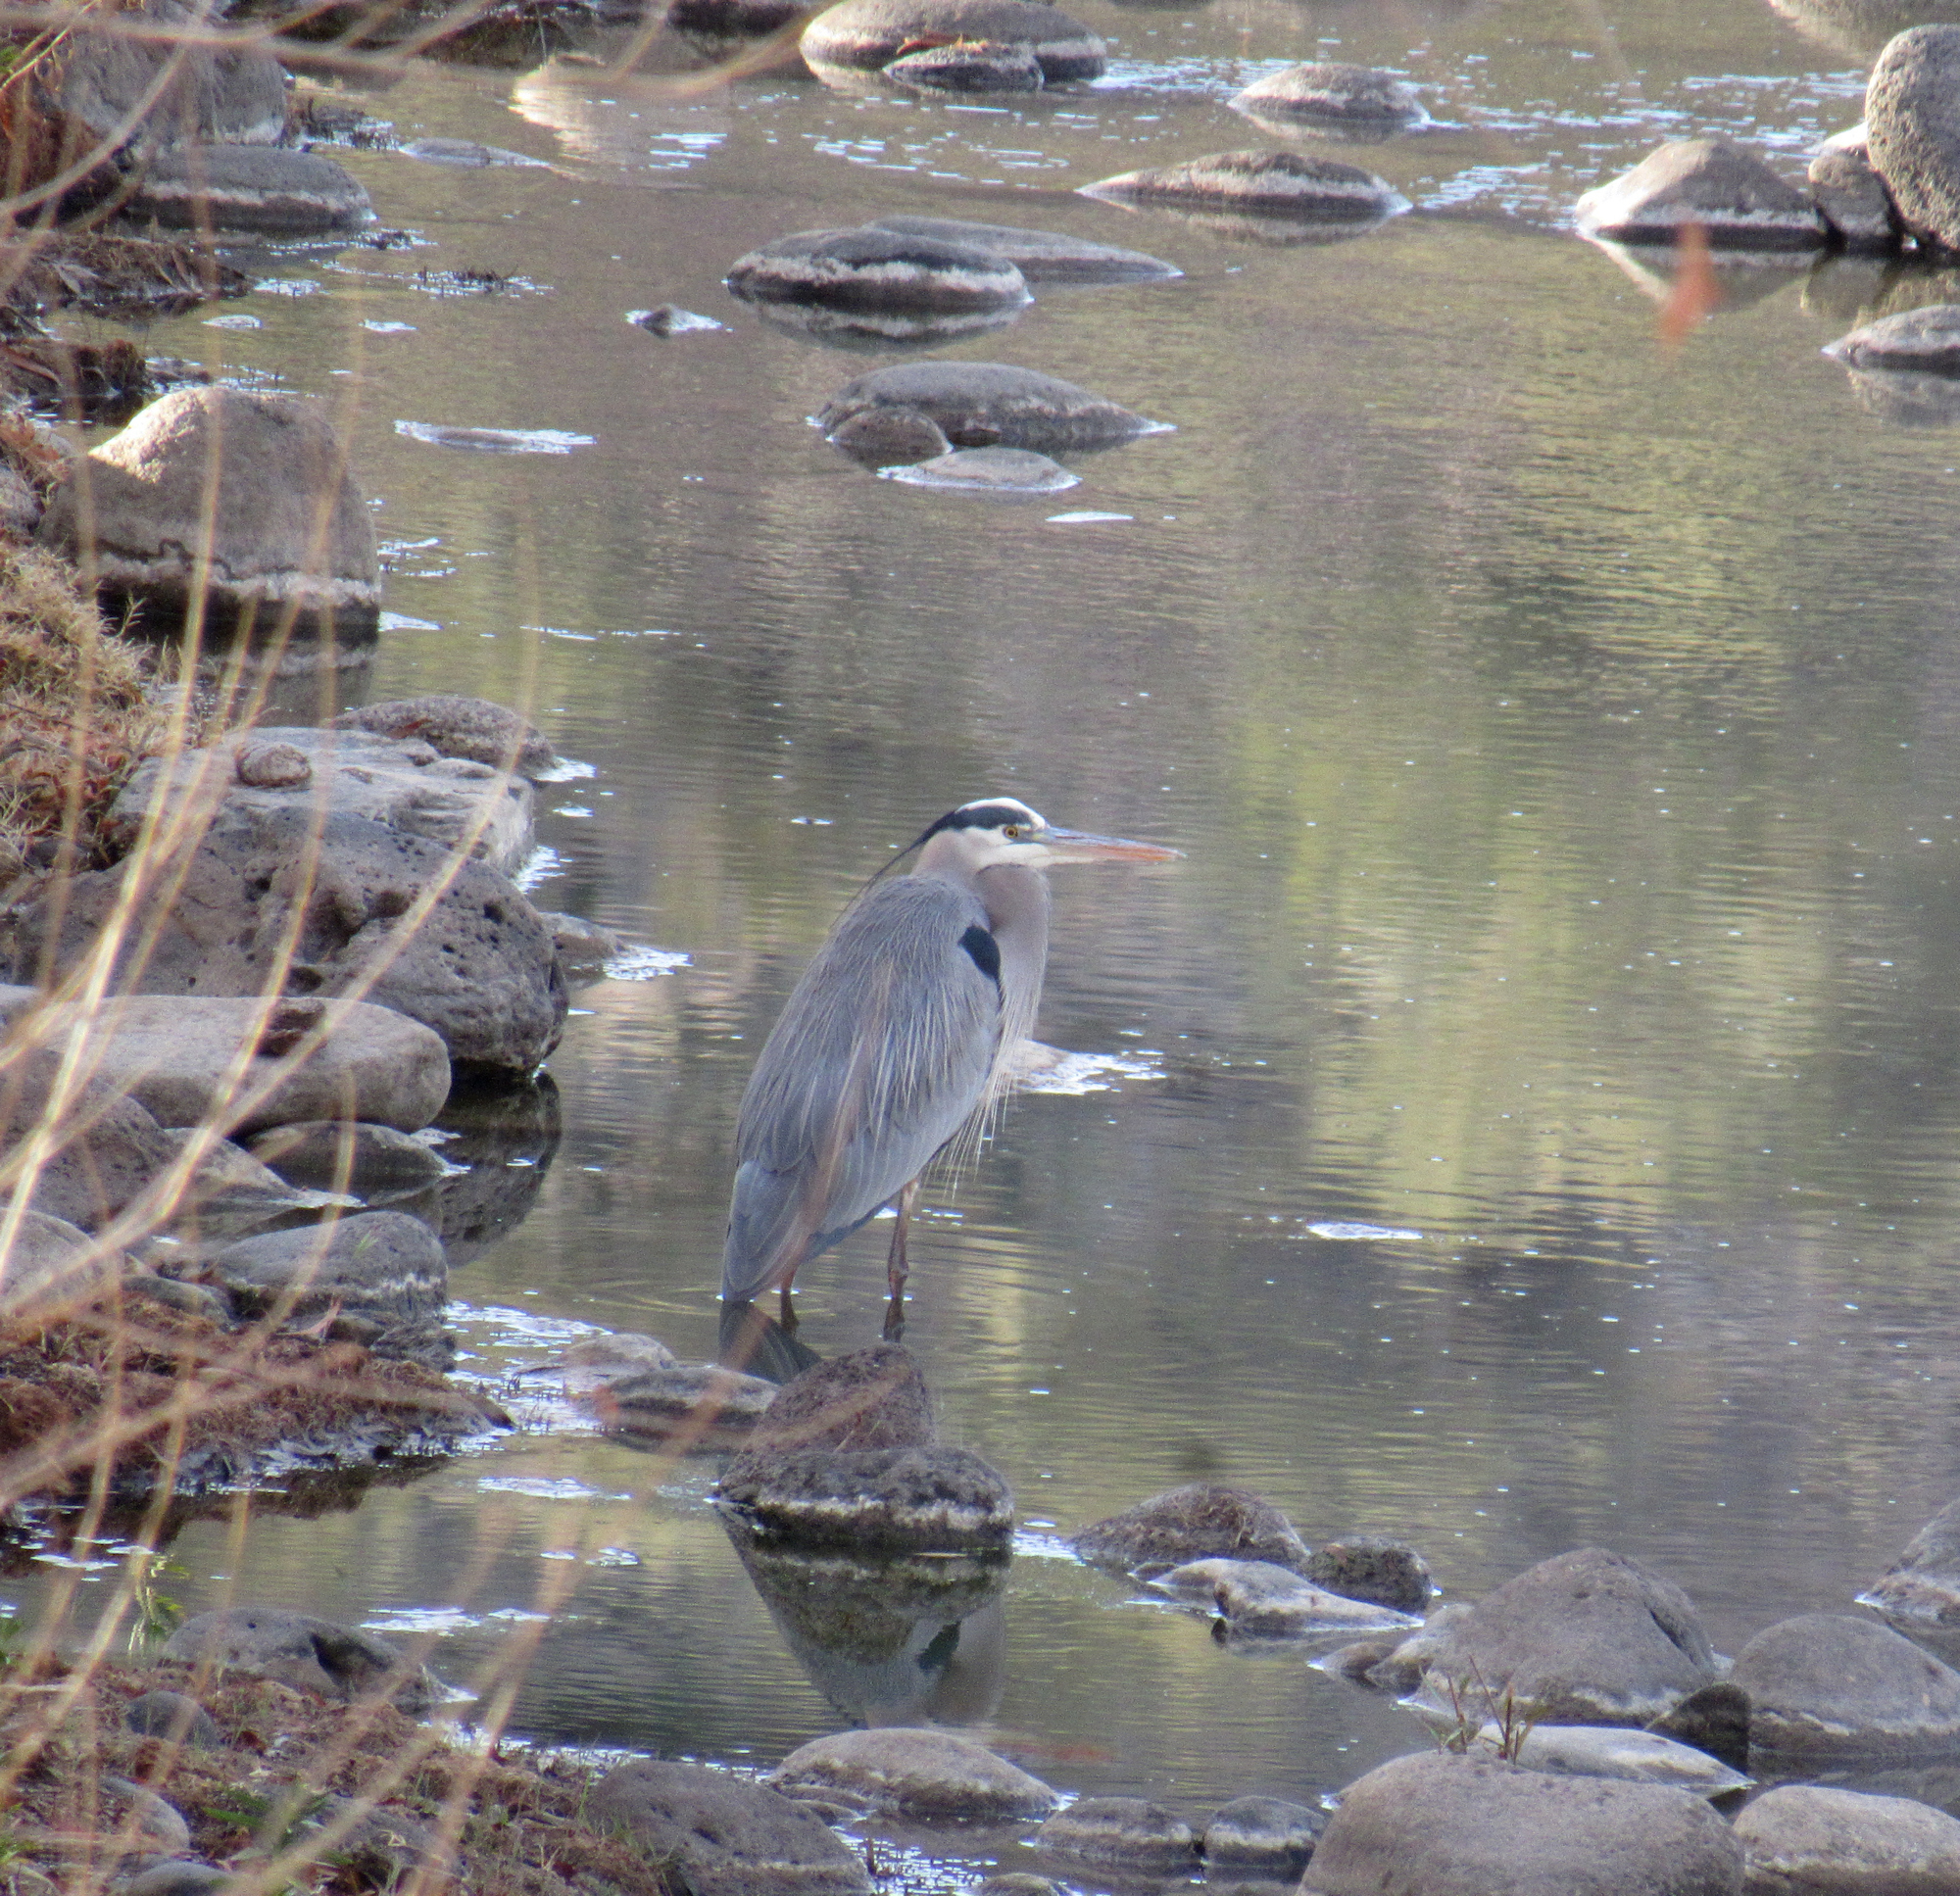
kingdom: Animalia
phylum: Chordata
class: Aves
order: Pelecaniformes
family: Ardeidae
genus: Ardea
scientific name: Ardea herodias
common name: Great blue heron
